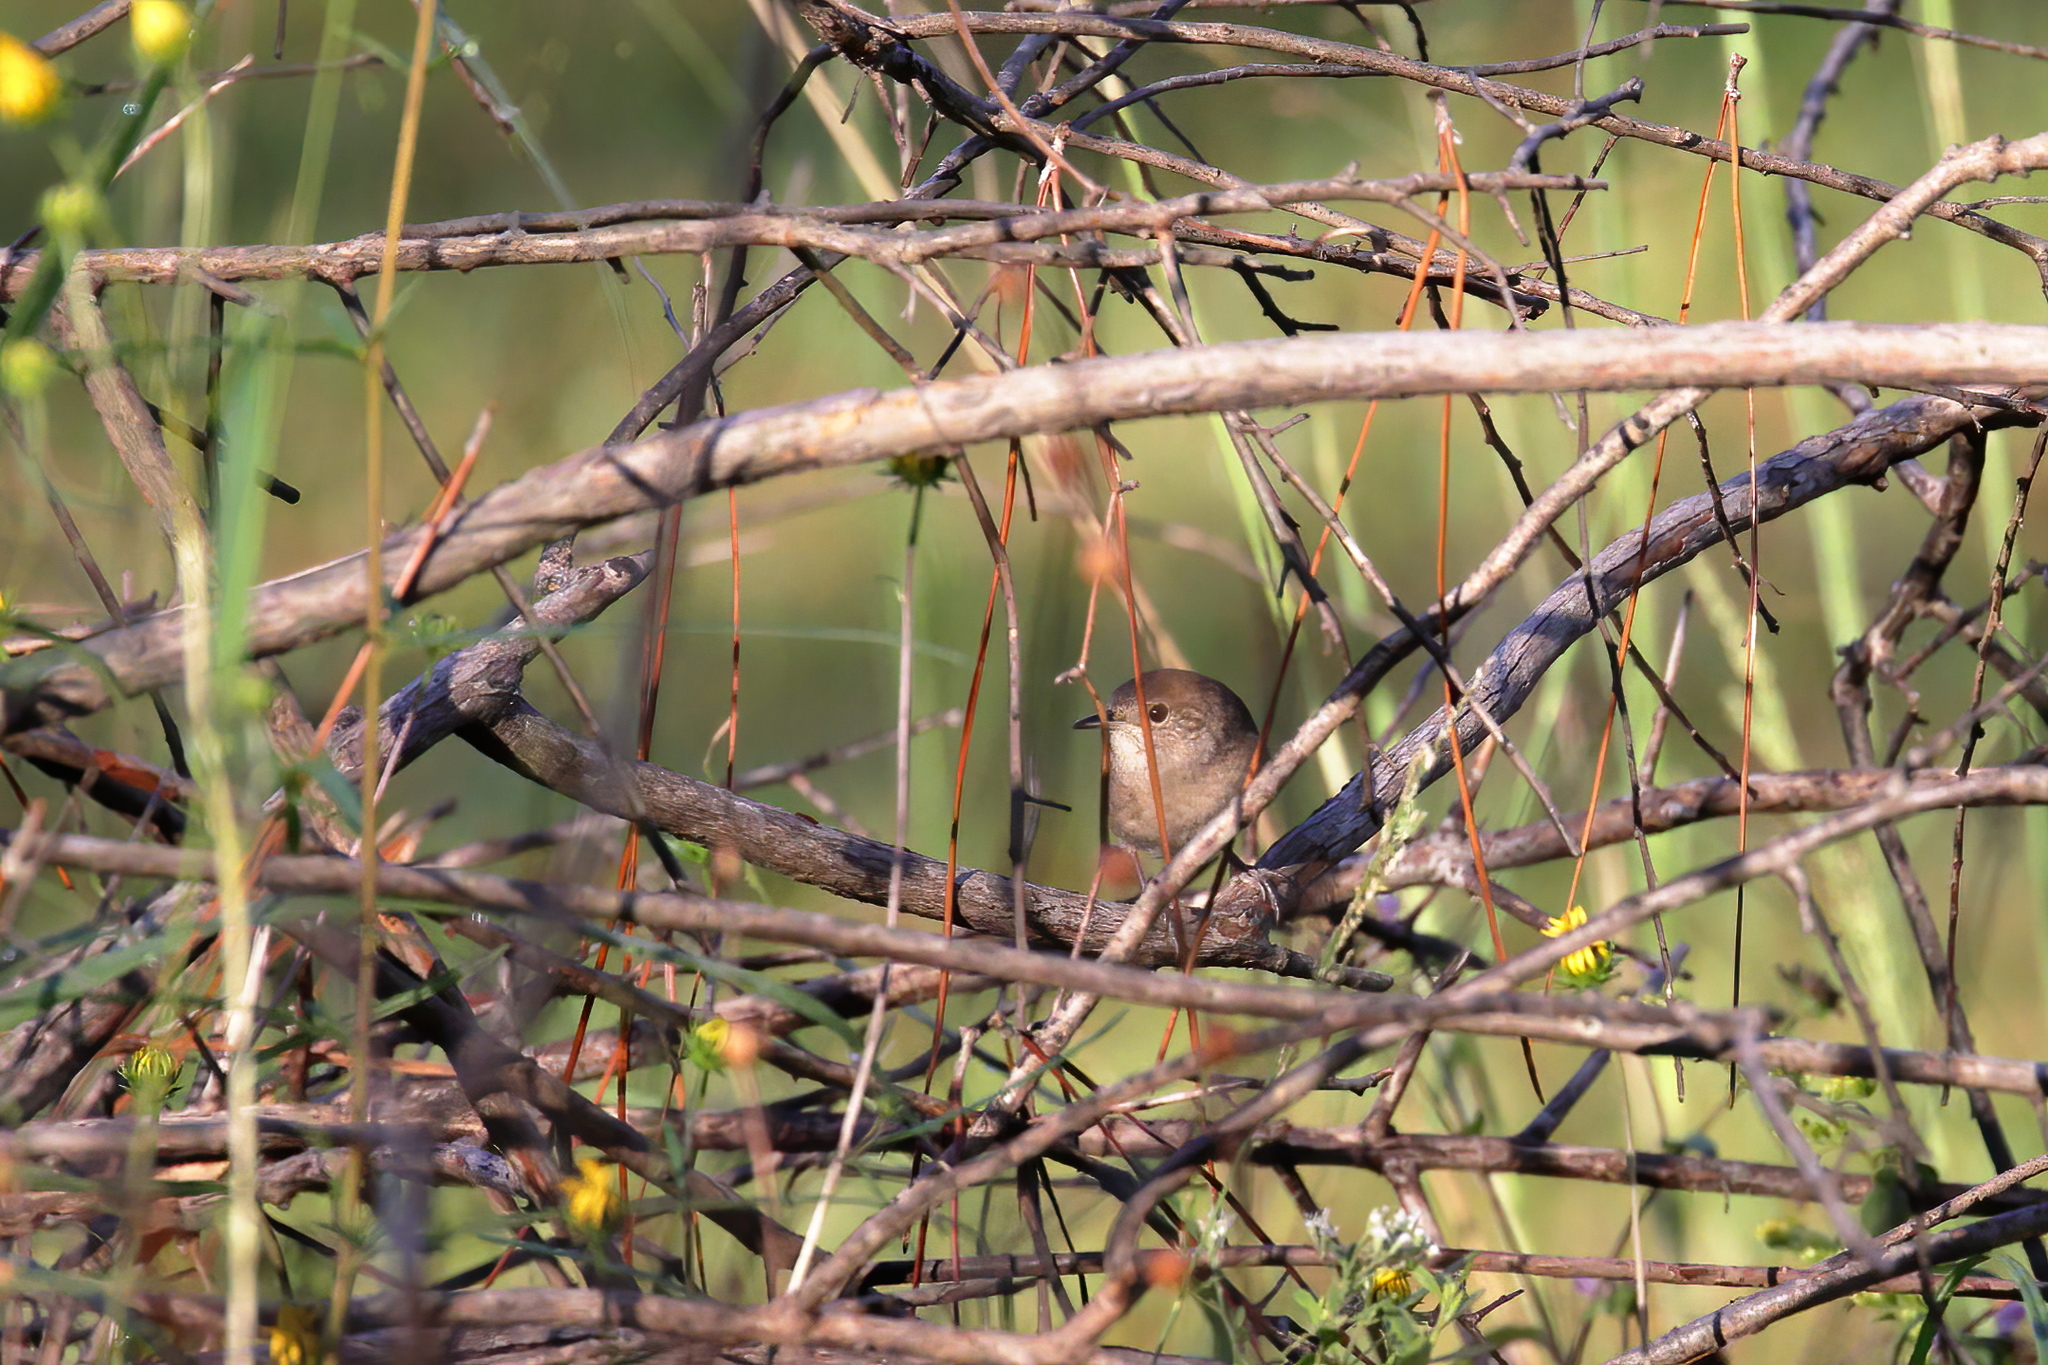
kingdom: Animalia
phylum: Chordata
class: Aves
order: Passeriformes
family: Troglodytidae
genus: Troglodytes
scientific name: Troglodytes aedon
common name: House wren
